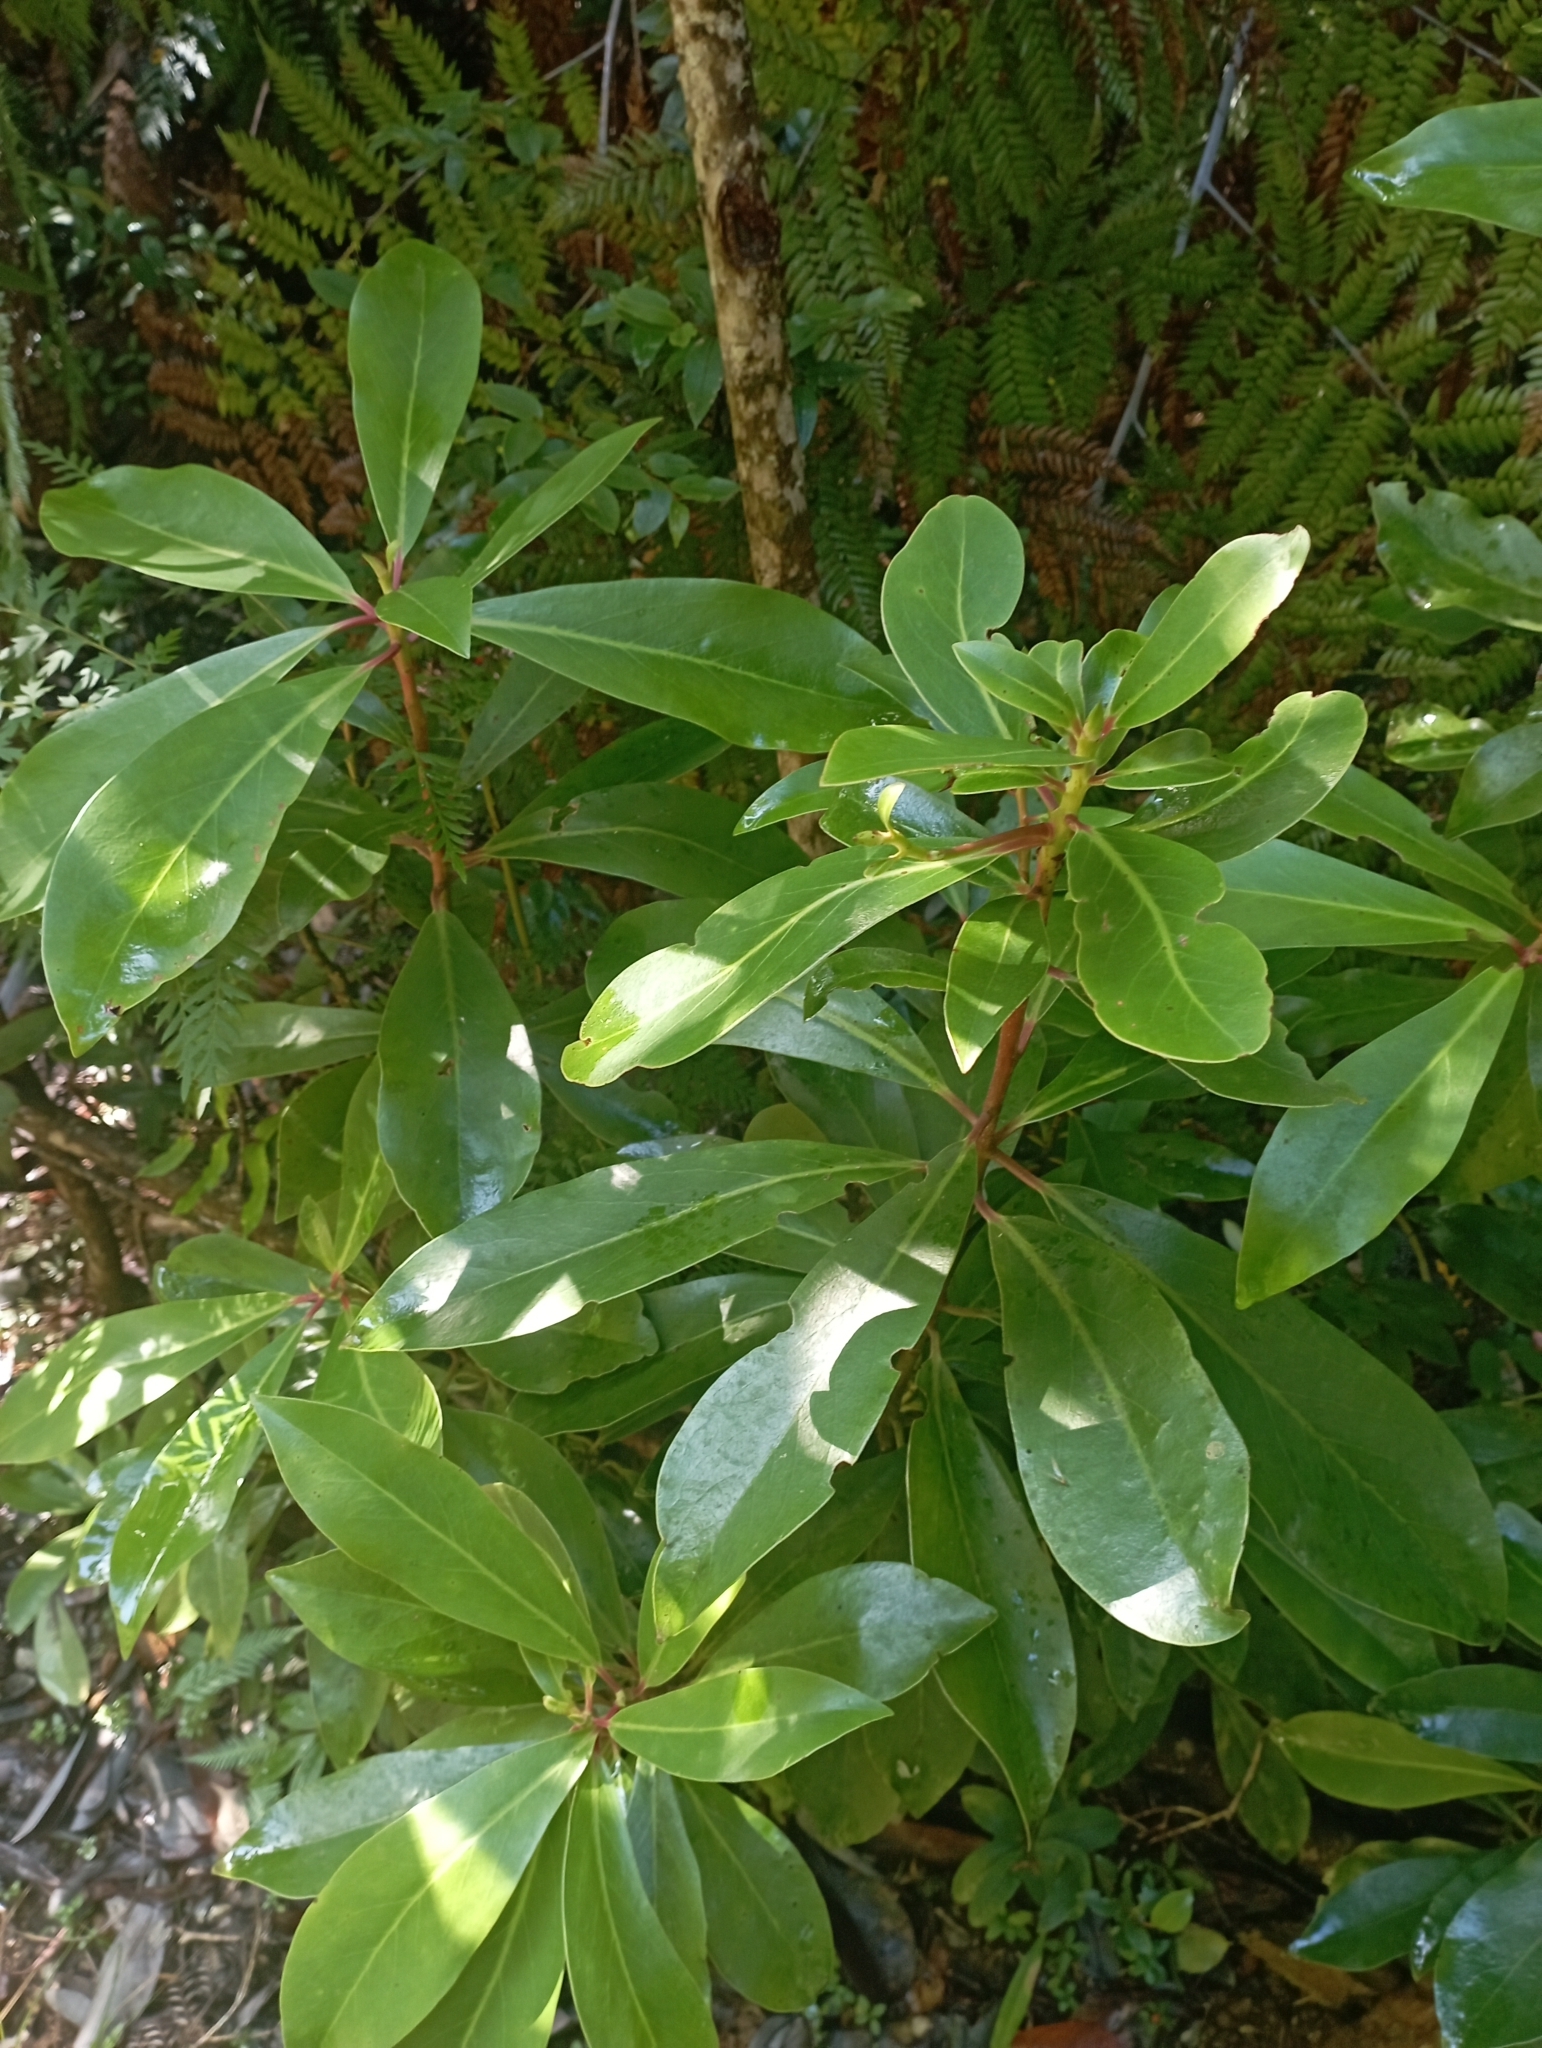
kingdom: Plantae
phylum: Tracheophyta
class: Magnoliopsida
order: Canellales
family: Winteraceae
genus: Drimys
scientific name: Drimys winteri
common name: Winter's-bark
